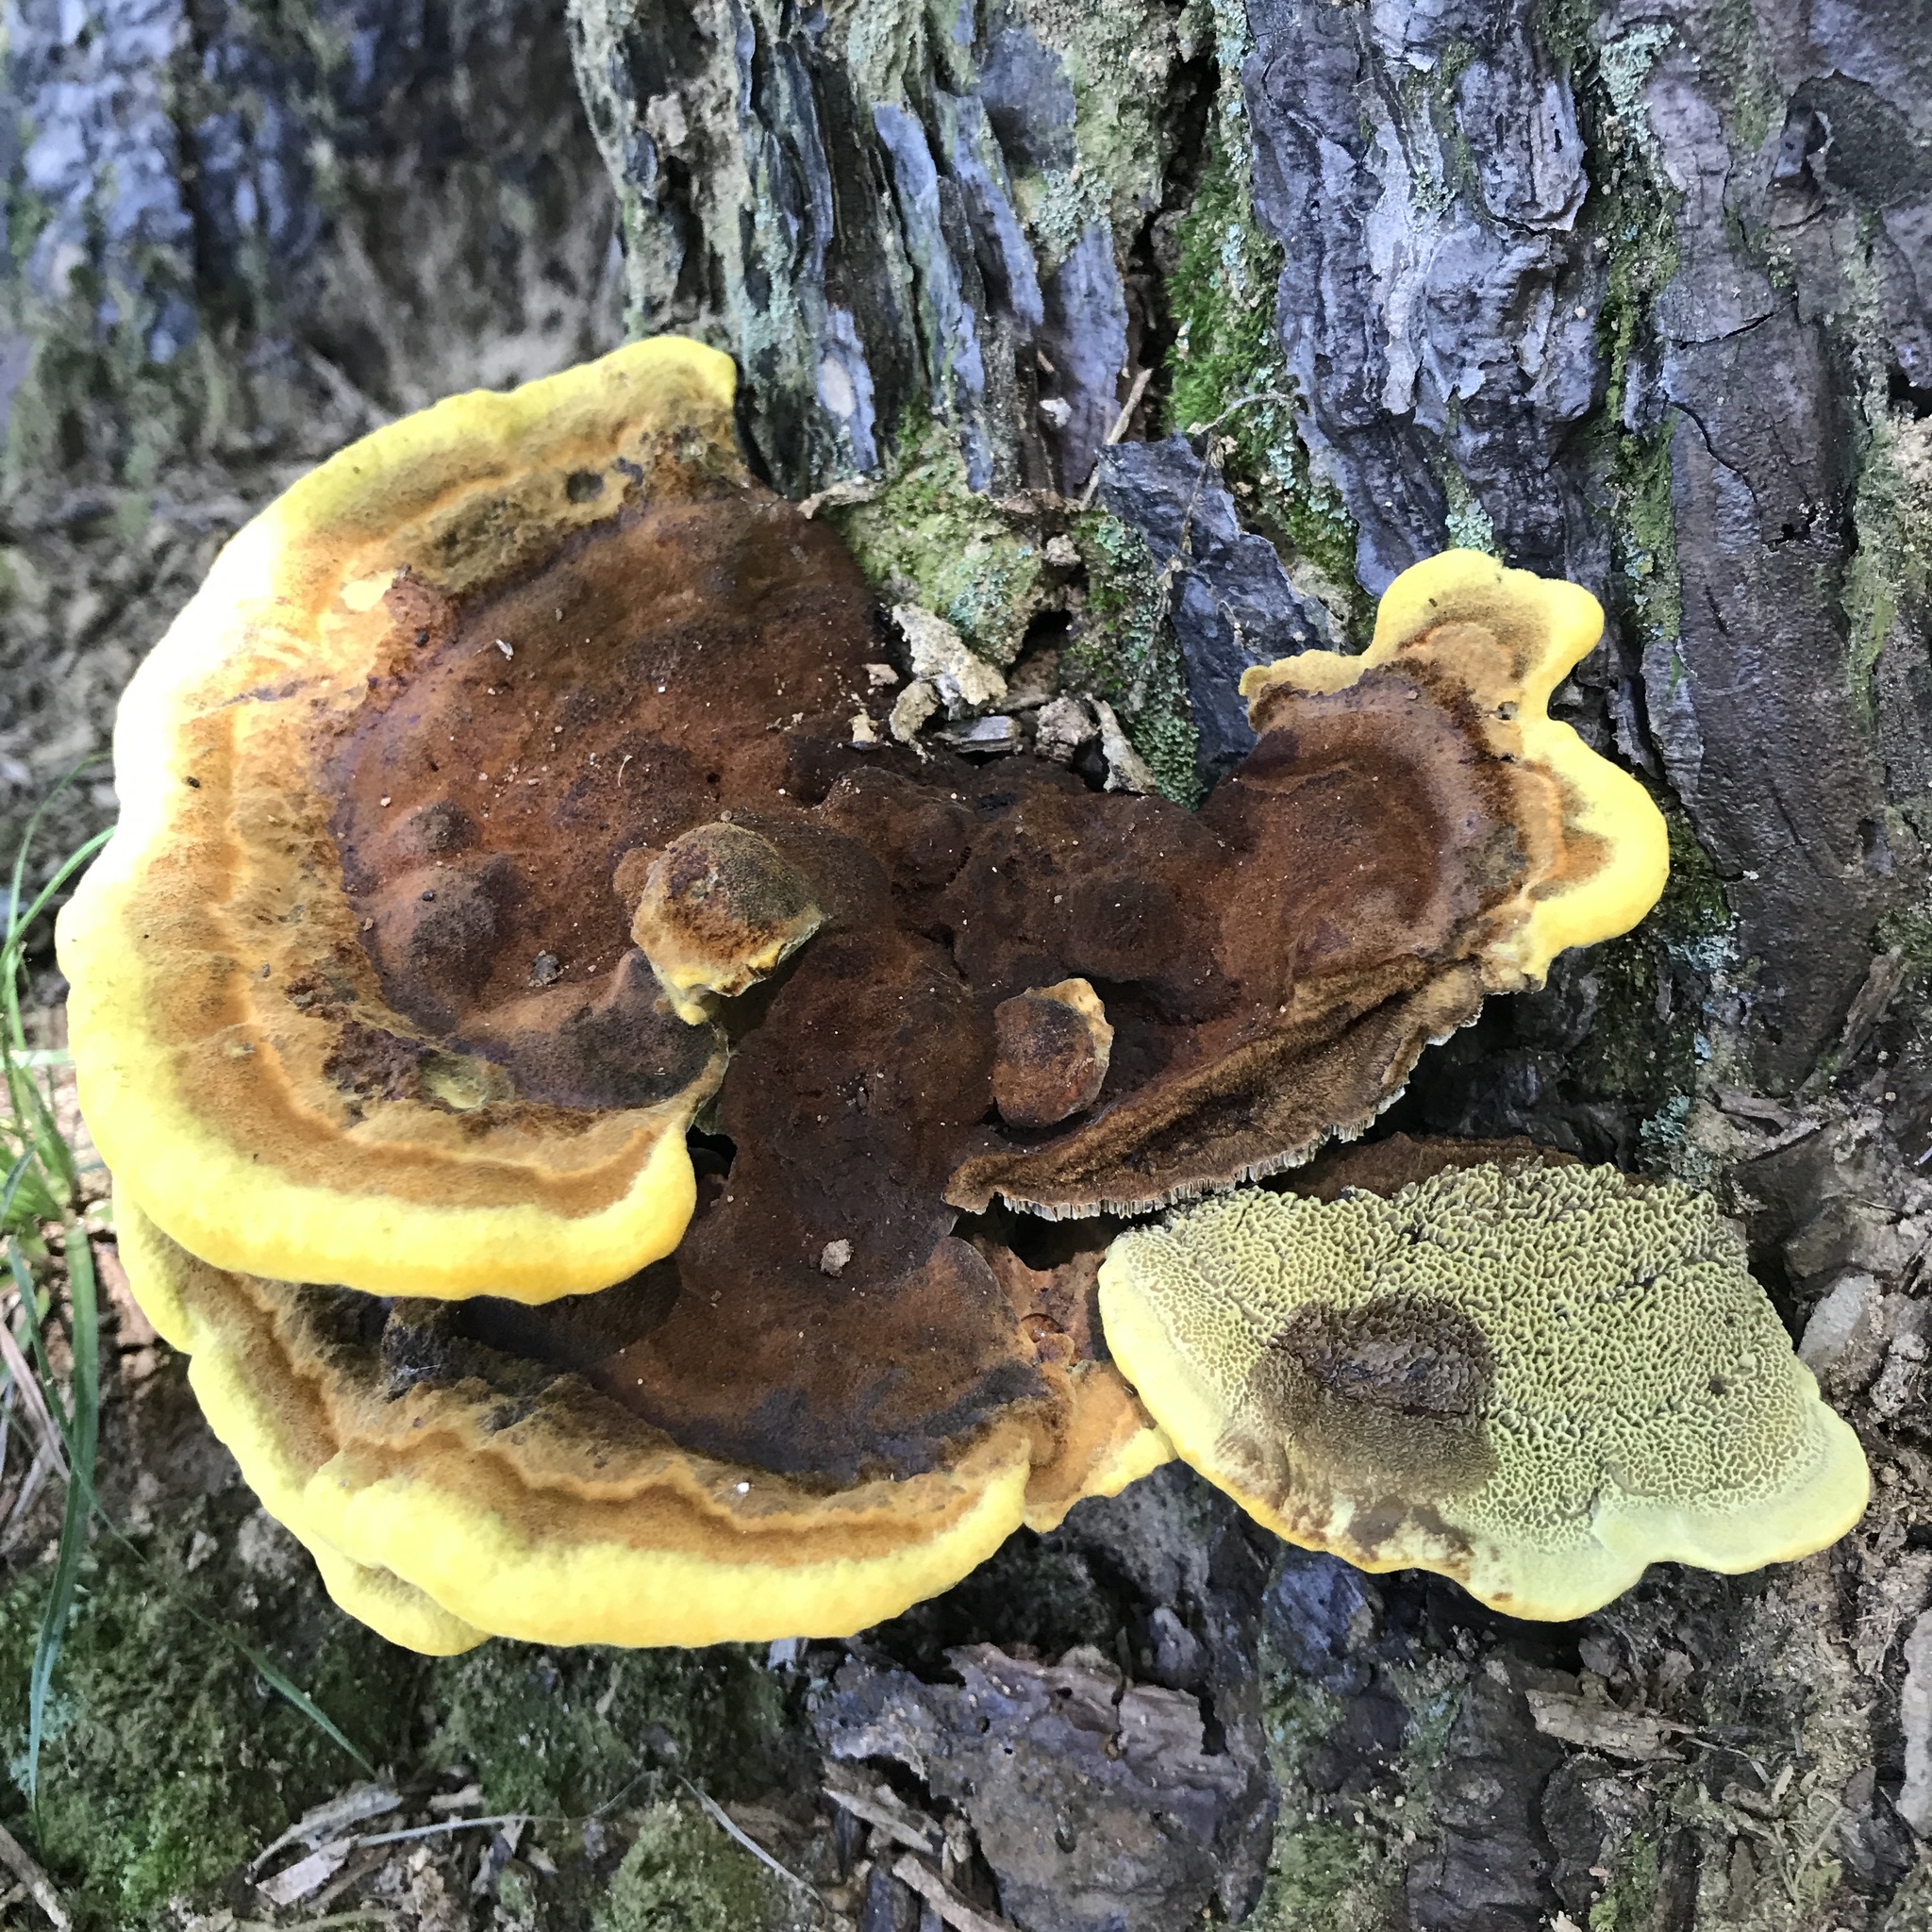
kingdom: Fungi
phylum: Basidiomycota
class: Agaricomycetes
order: Polyporales
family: Laetiporaceae
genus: Phaeolus
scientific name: Phaeolus schweinitzii
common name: Dyer's mazegill
